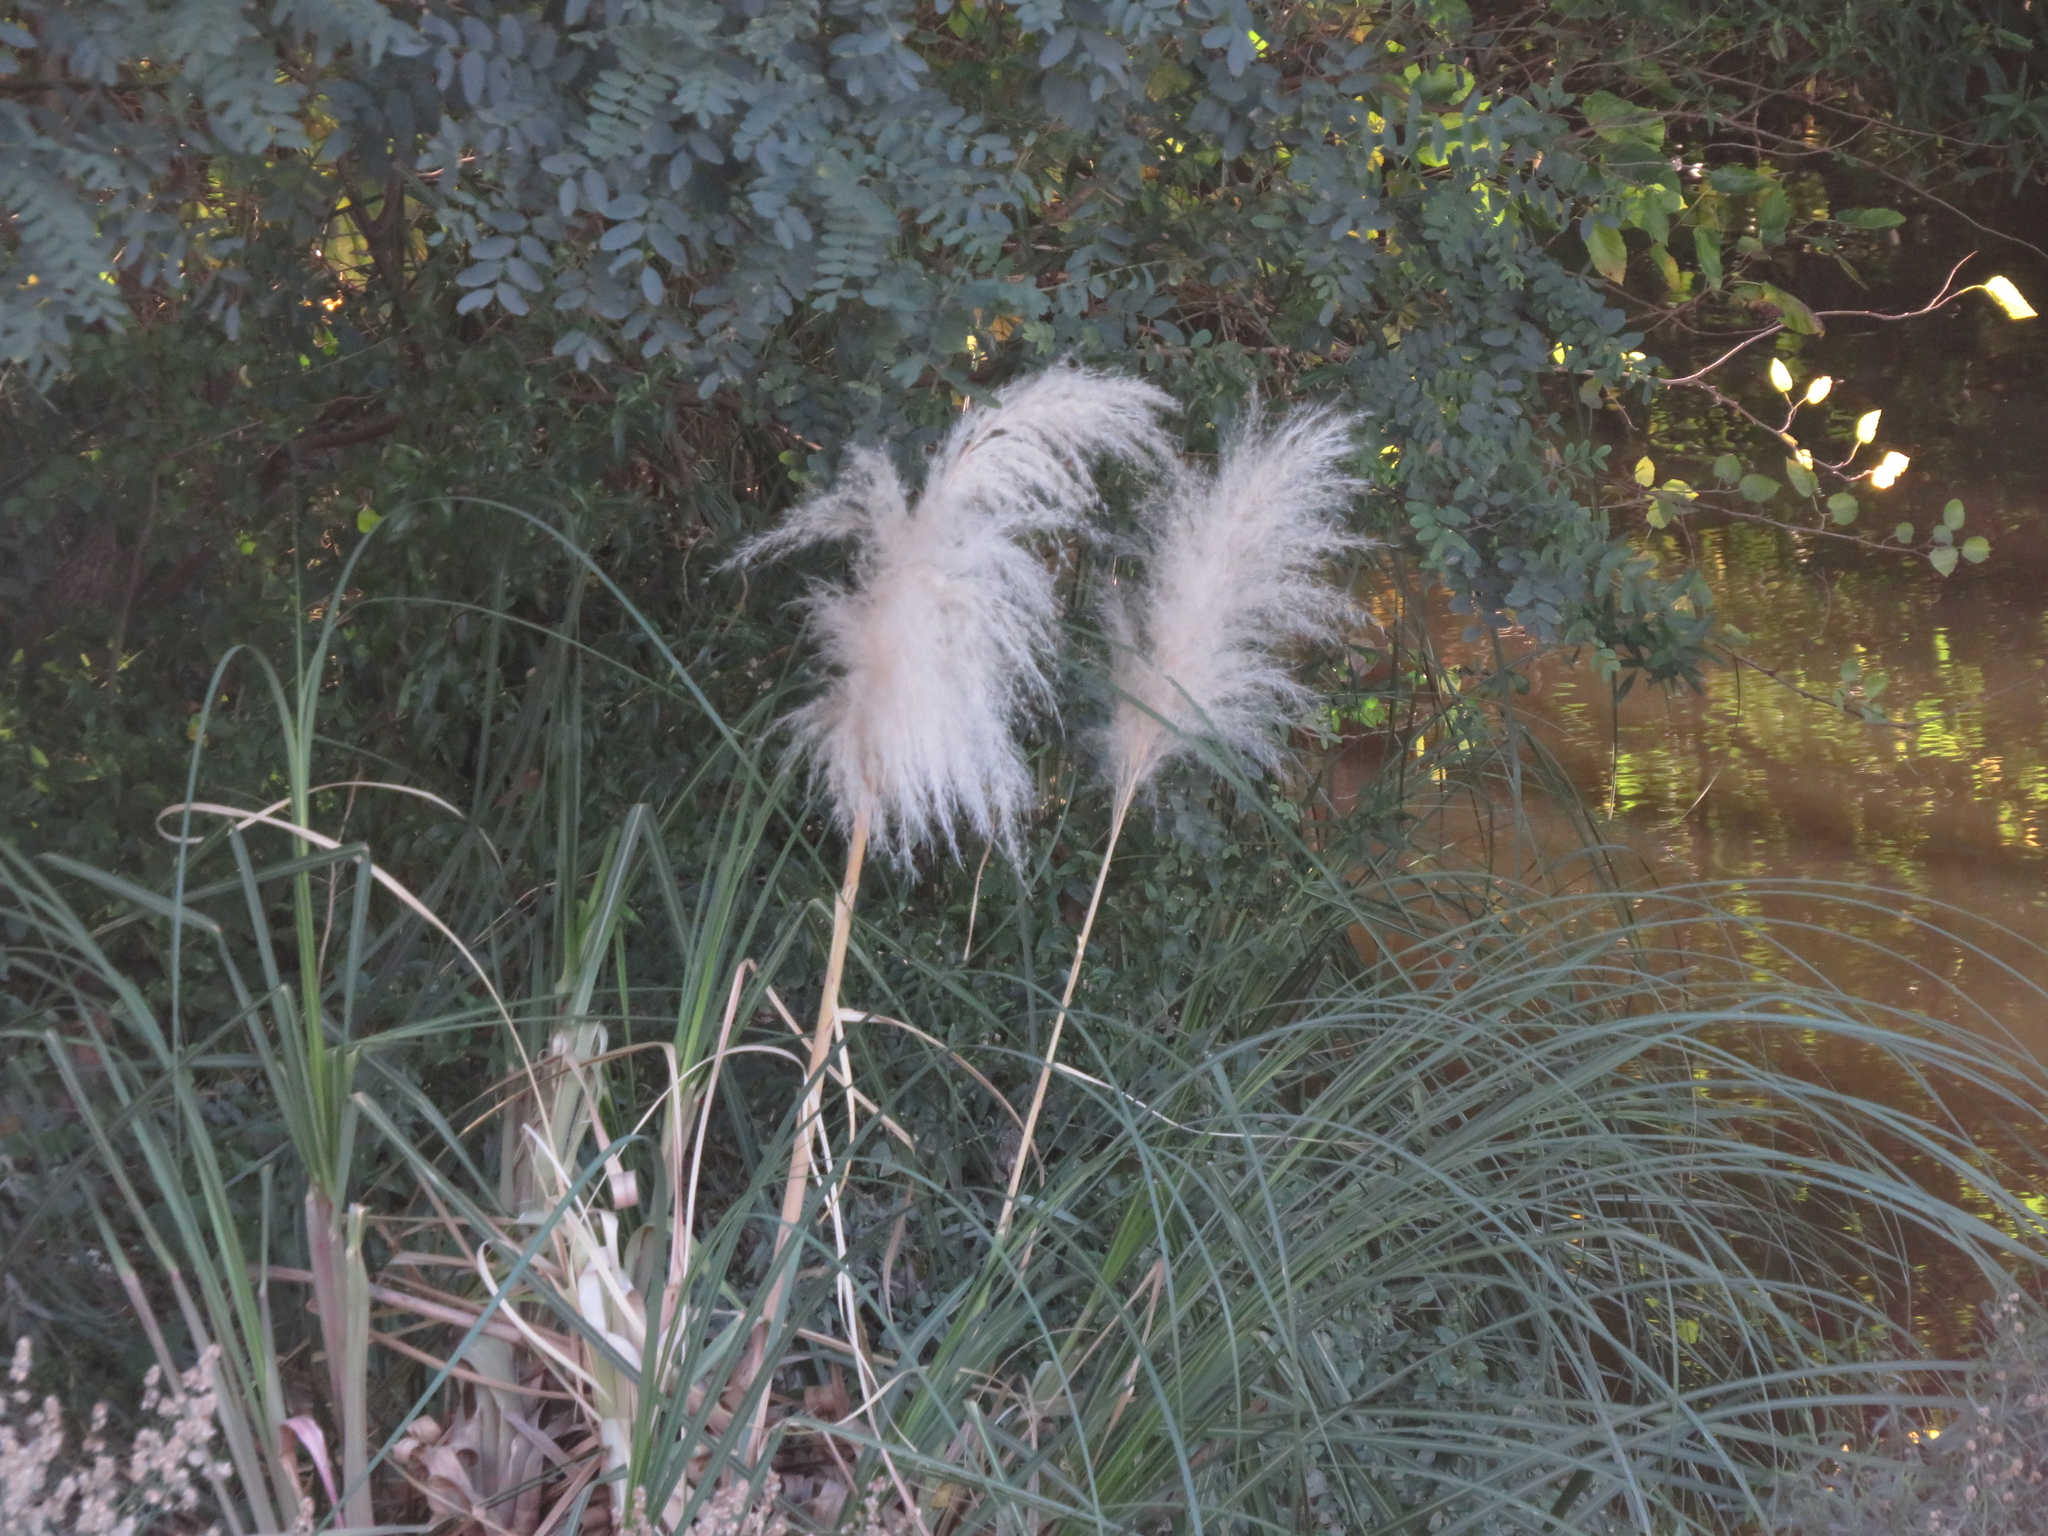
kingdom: Plantae
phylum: Tracheophyta
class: Liliopsida
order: Poales
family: Poaceae
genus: Cortaderia
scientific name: Cortaderia selloana
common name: Uruguayan pampas grass
